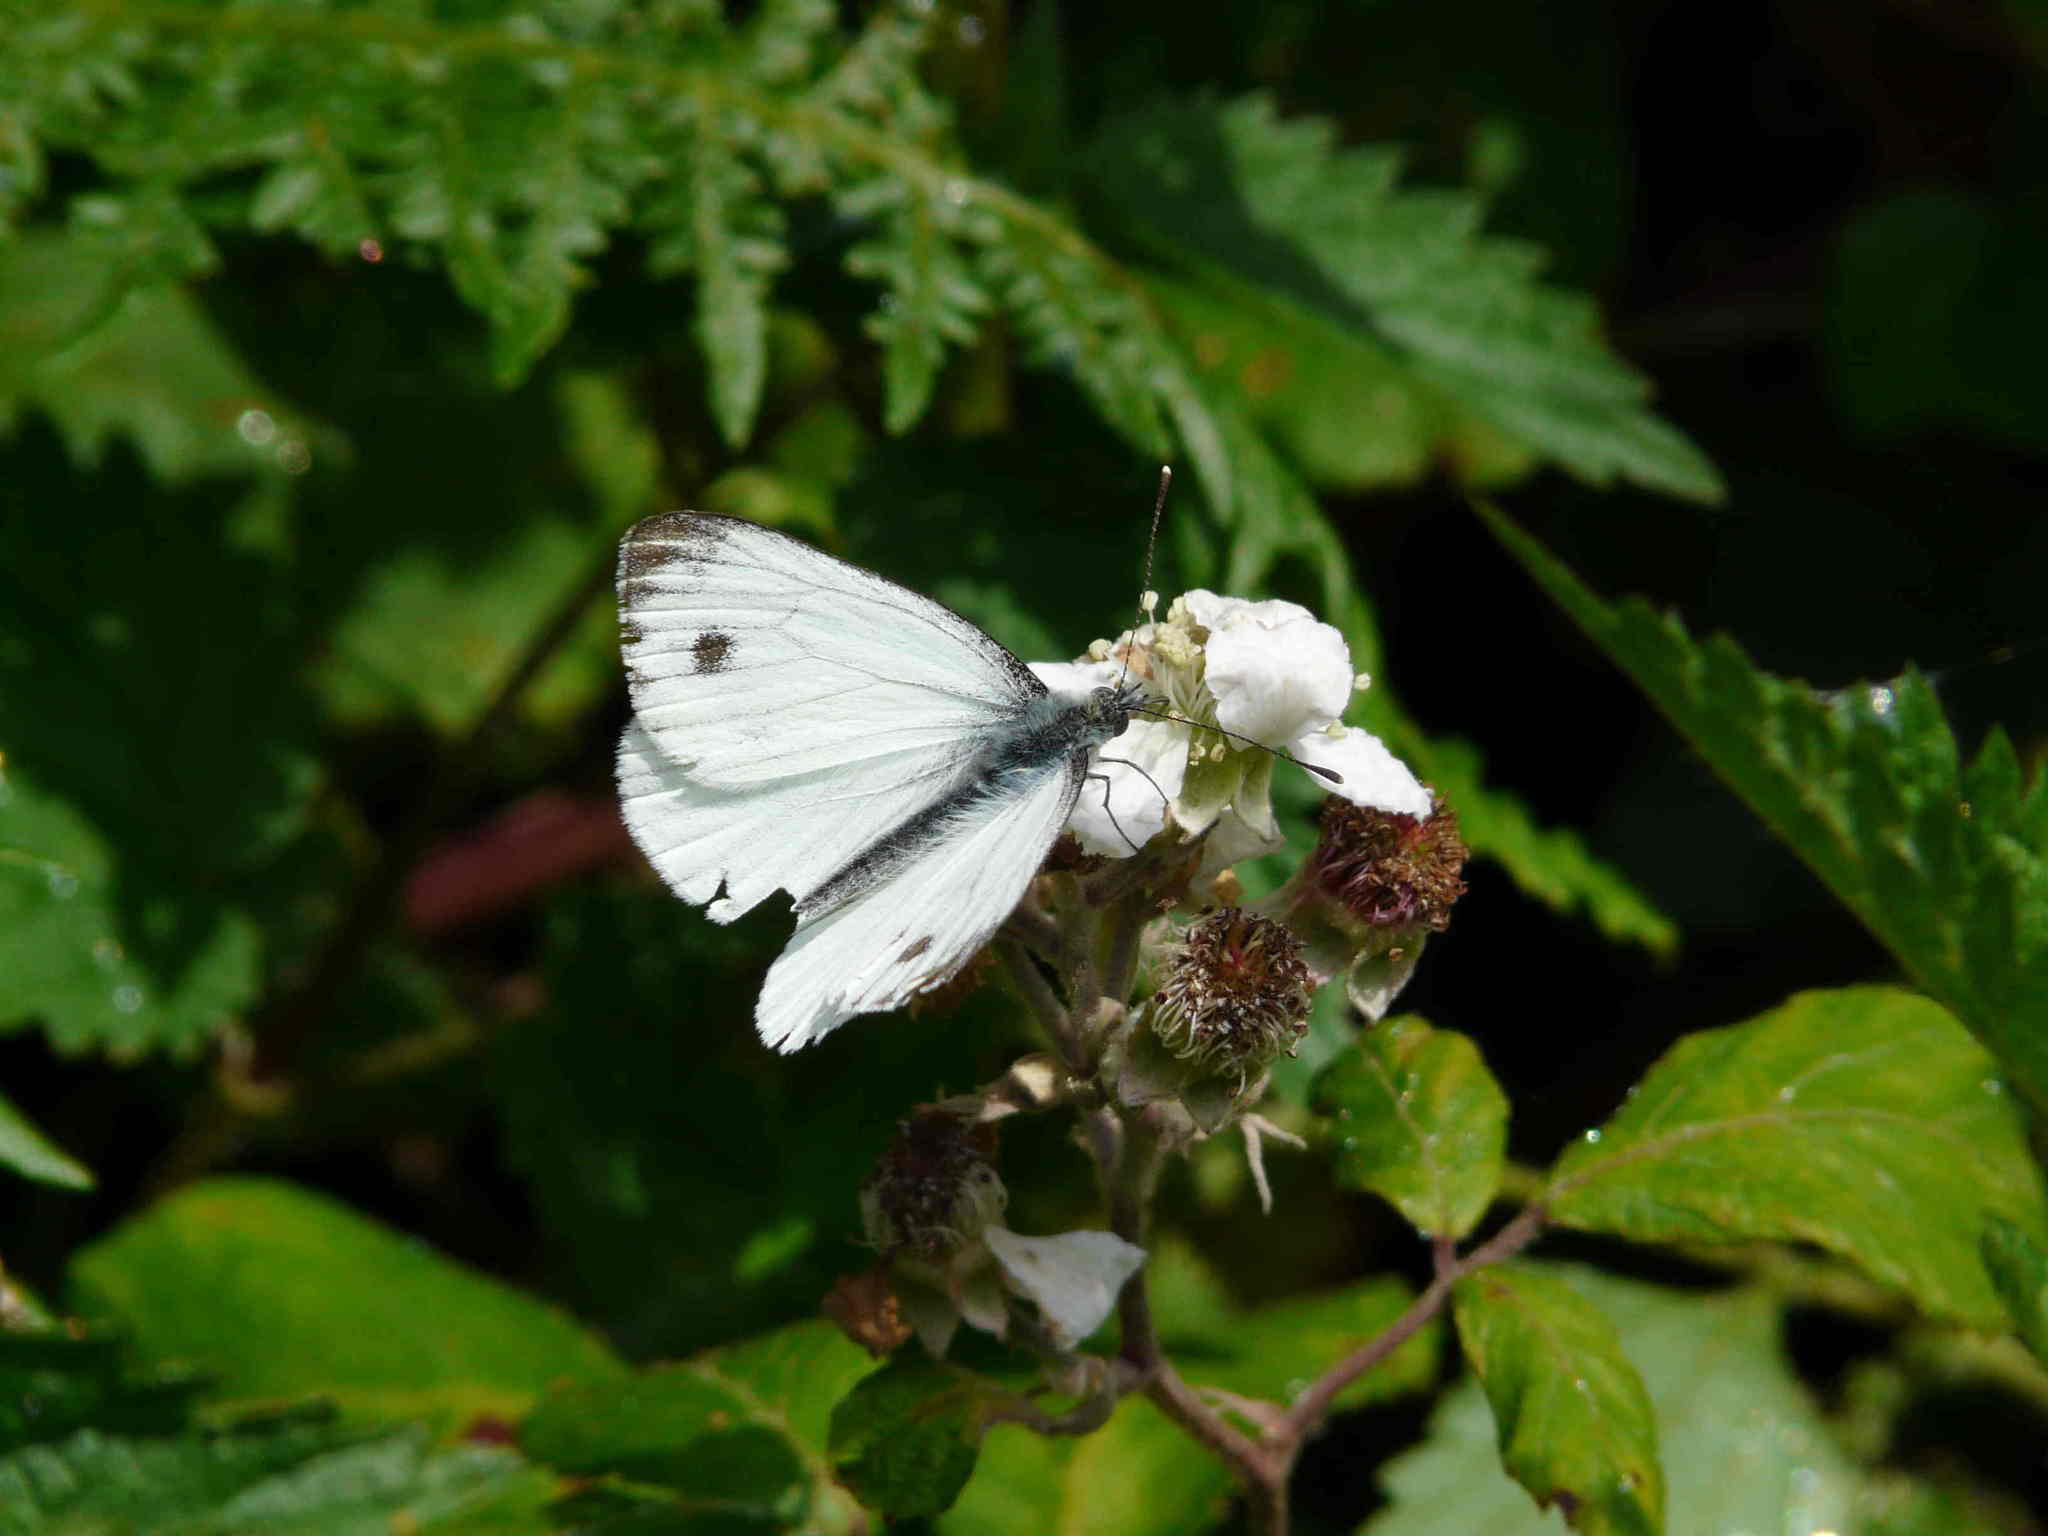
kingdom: Animalia
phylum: Arthropoda
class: Insecta
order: Lepidoptera
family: Pieridae
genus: Pieris
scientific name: Pieris napi
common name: Green-veined white
